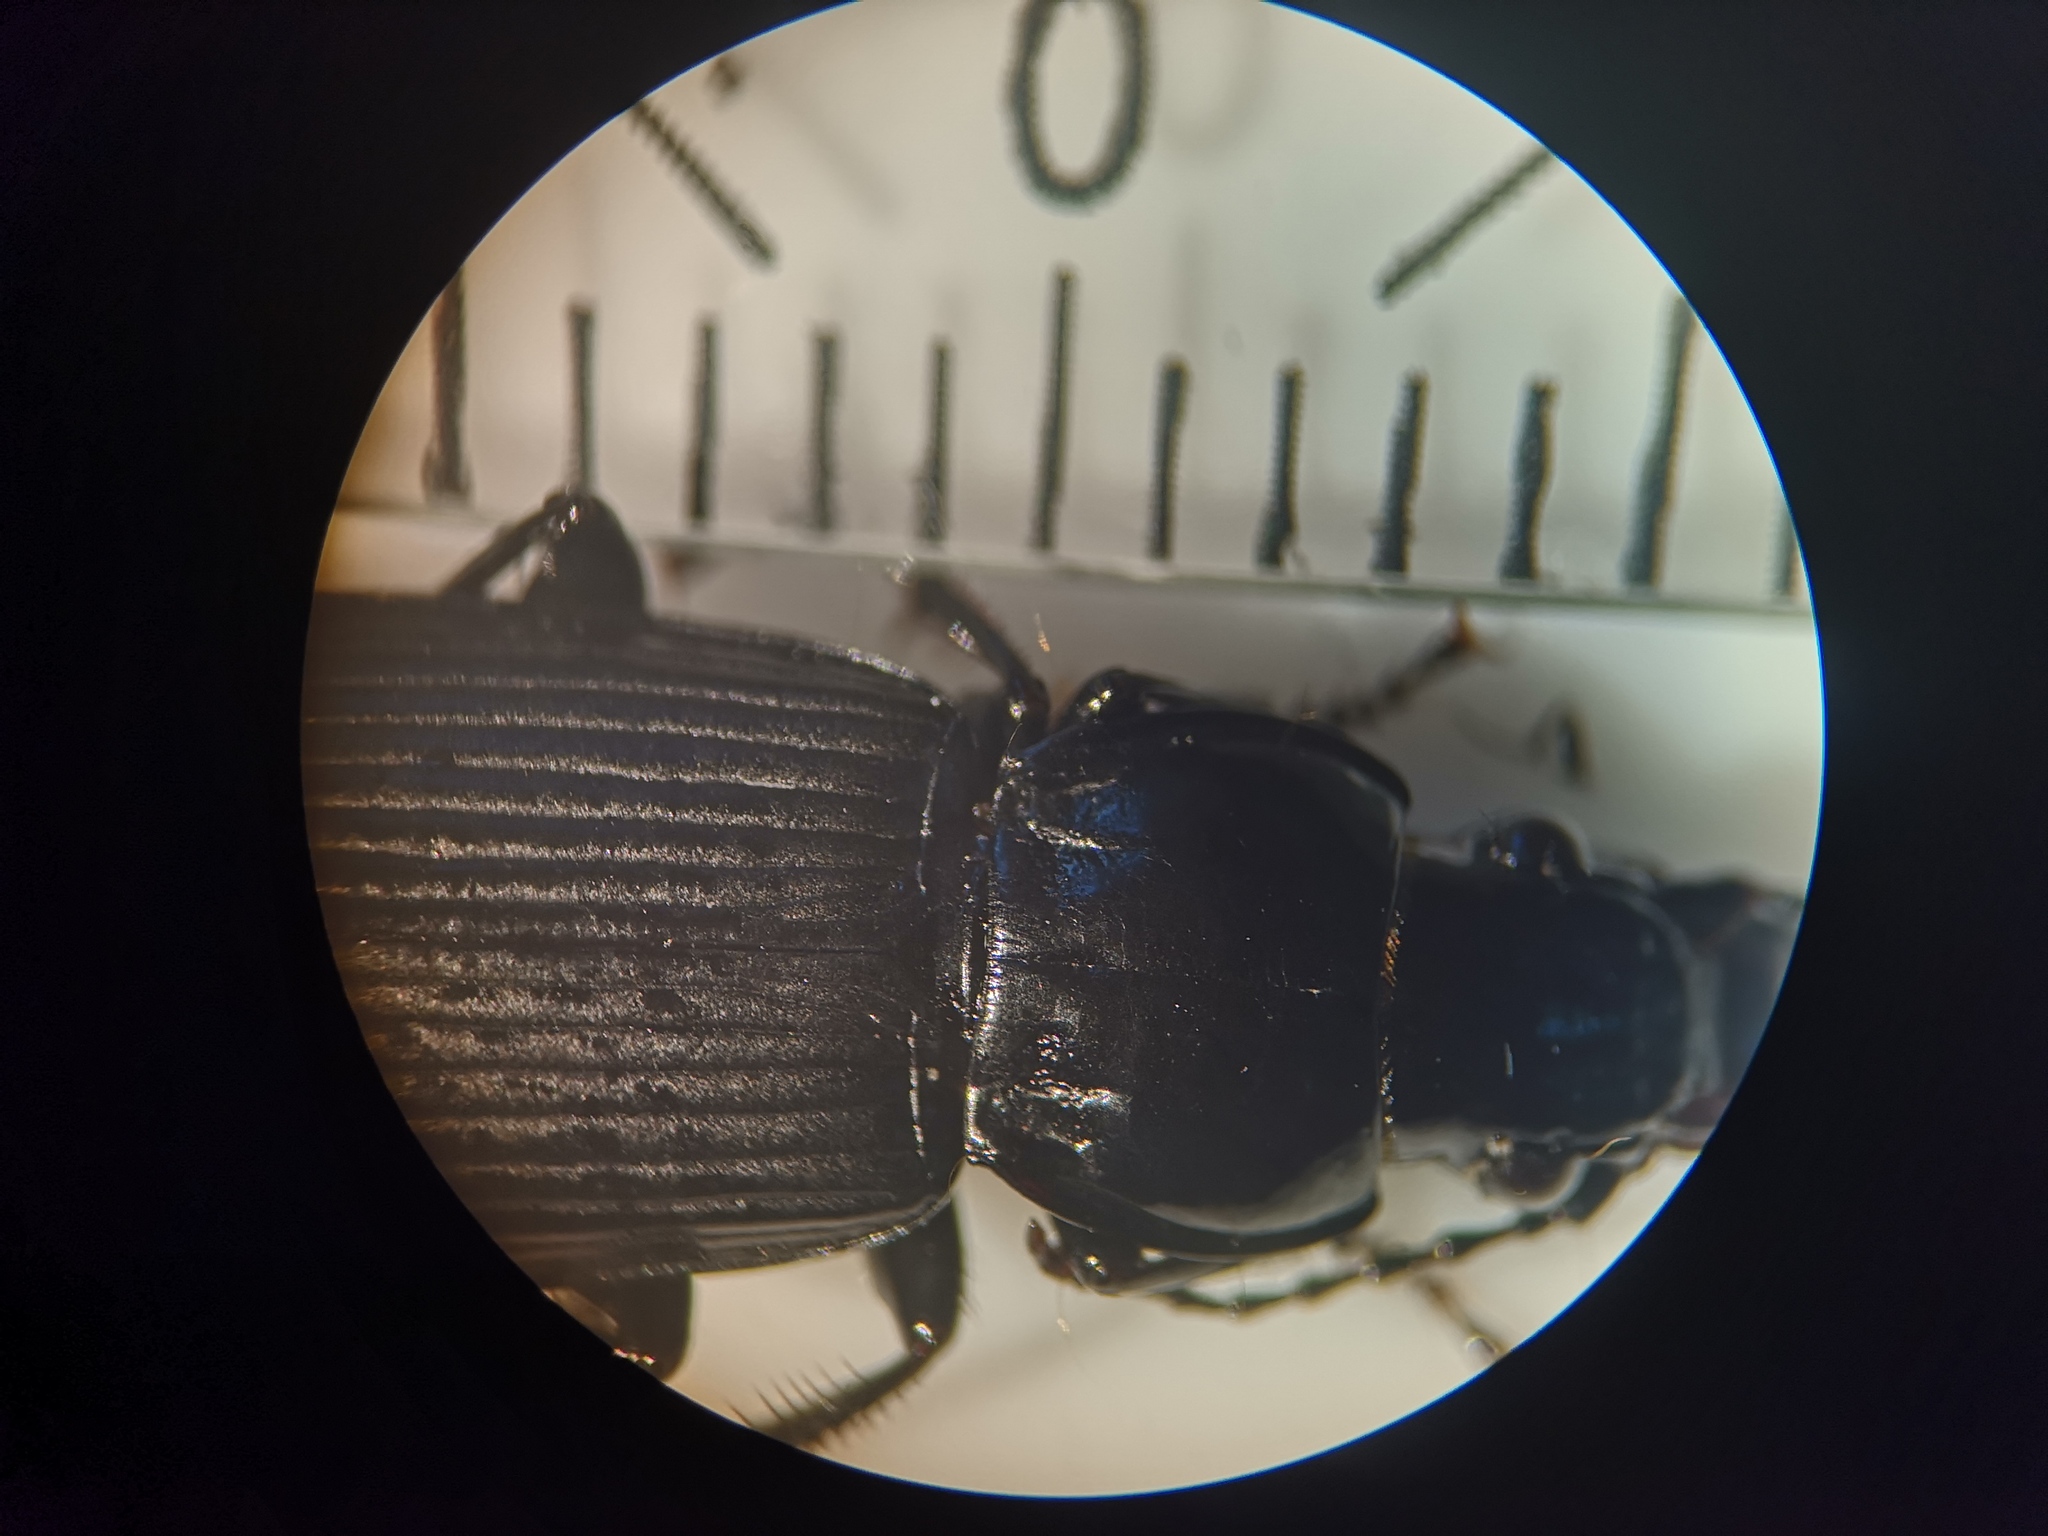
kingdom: Animalia
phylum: Arthropoda
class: Insecta
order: Coleoptera
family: Carabidae
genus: Pterostichus
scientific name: Pterostichus melanarius
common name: European dark harp ground beetle
